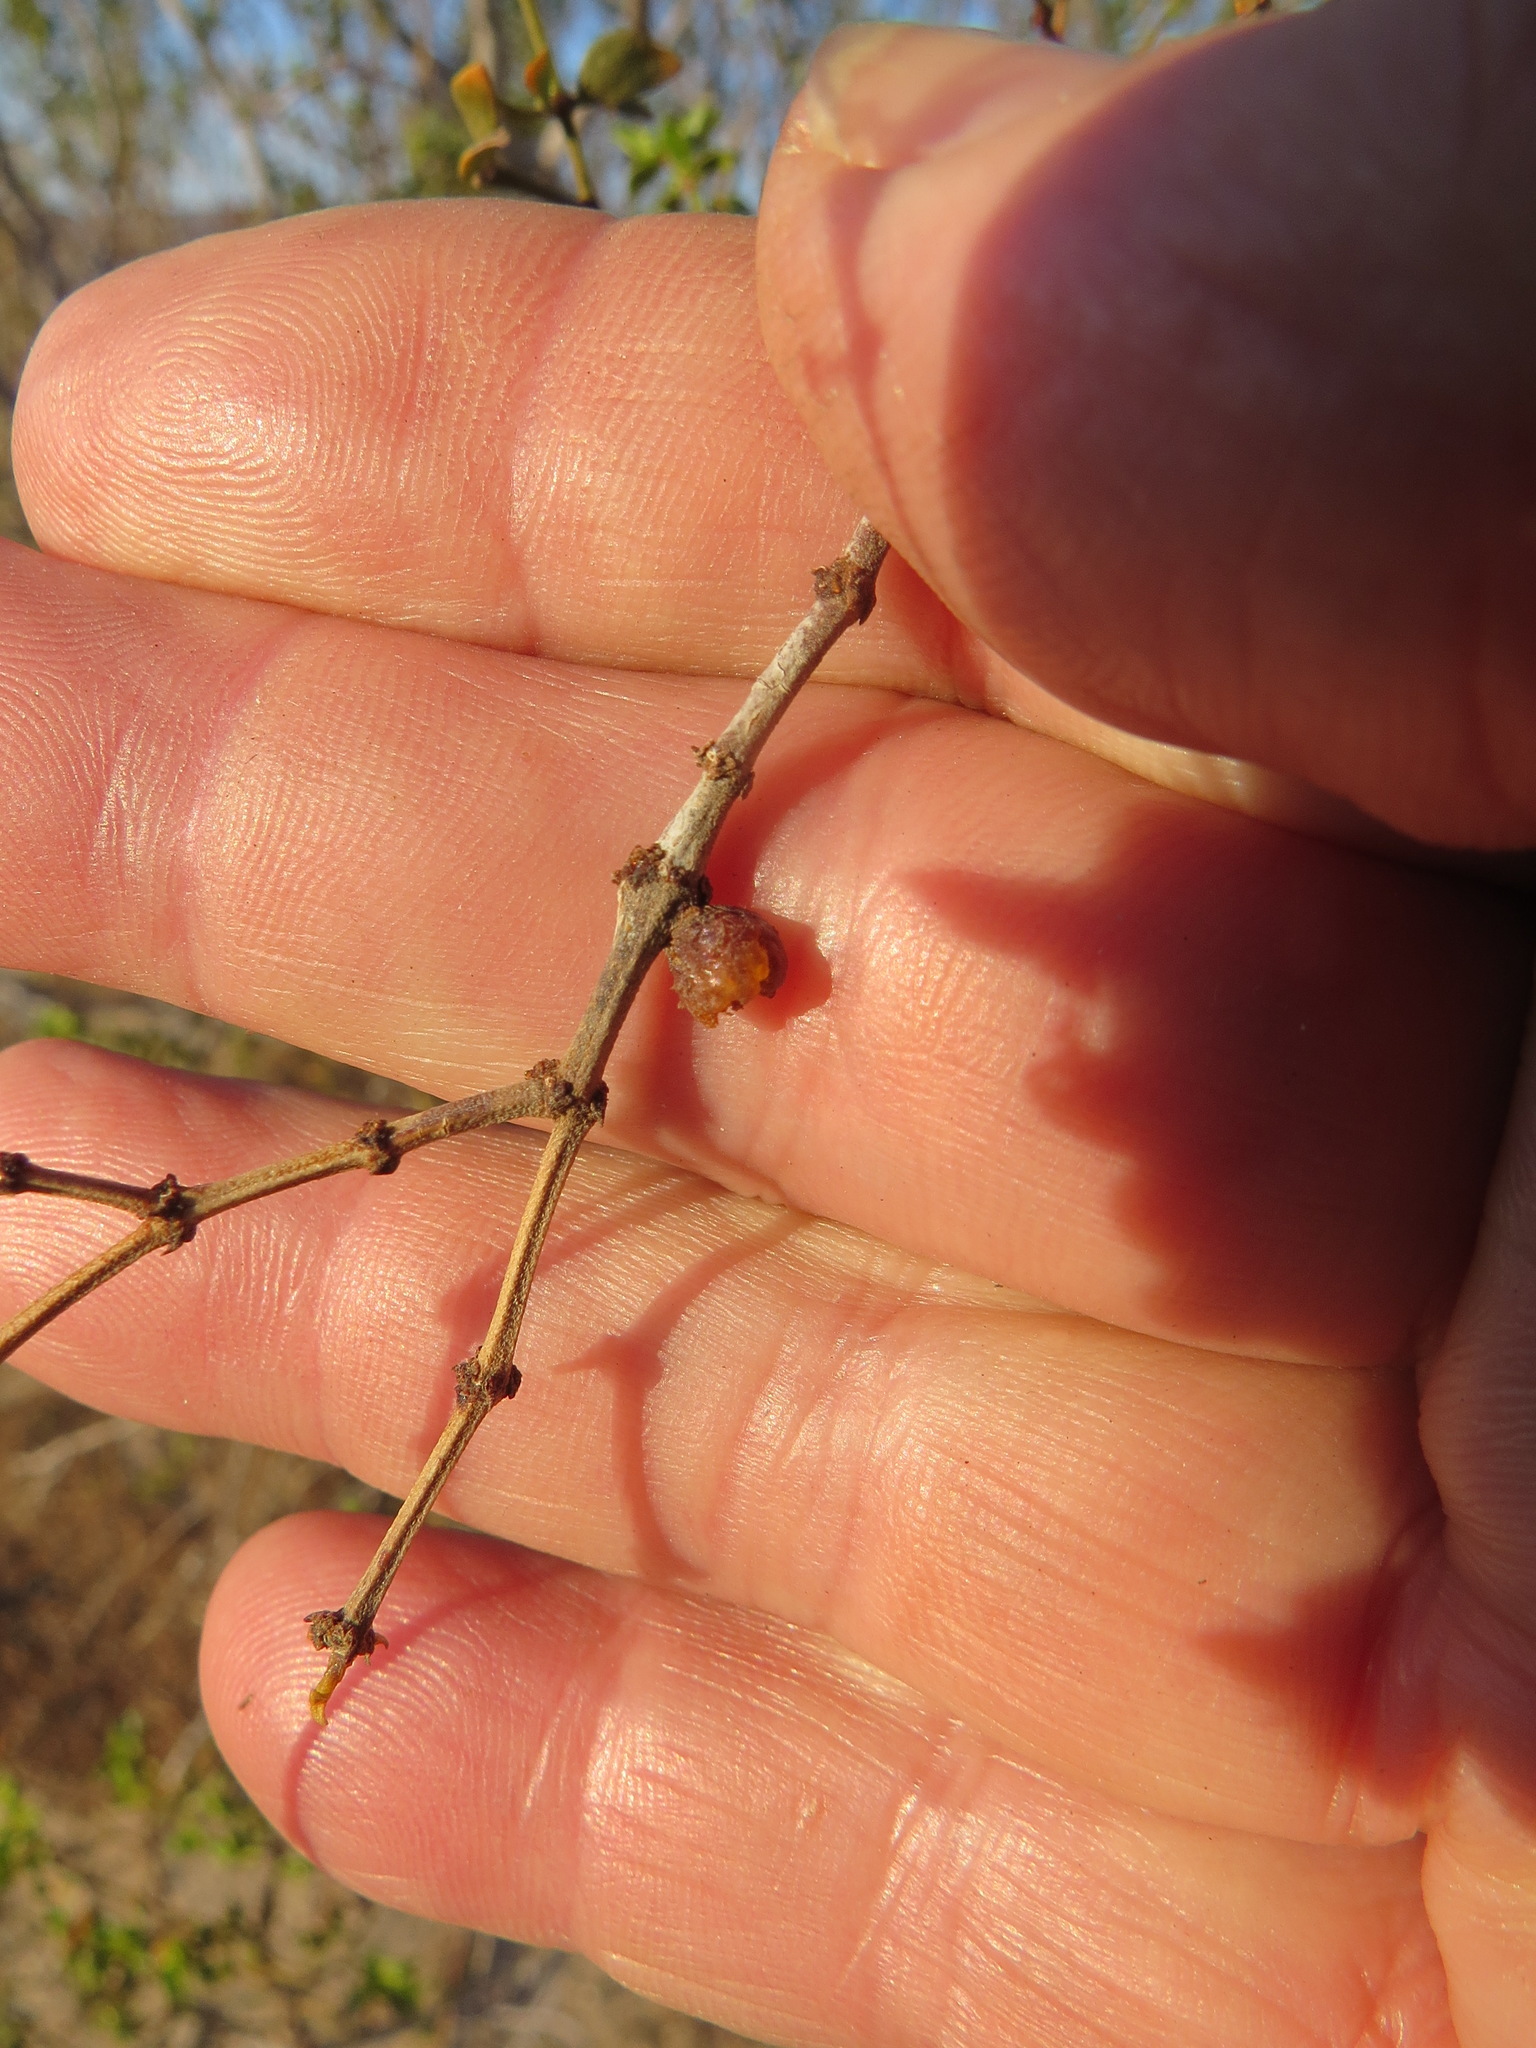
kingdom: Animalia
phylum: Arthropoda
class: Insecta
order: Diptera
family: Cecidomyiidae
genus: Asphondylia
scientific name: Asphondylia resinosa
